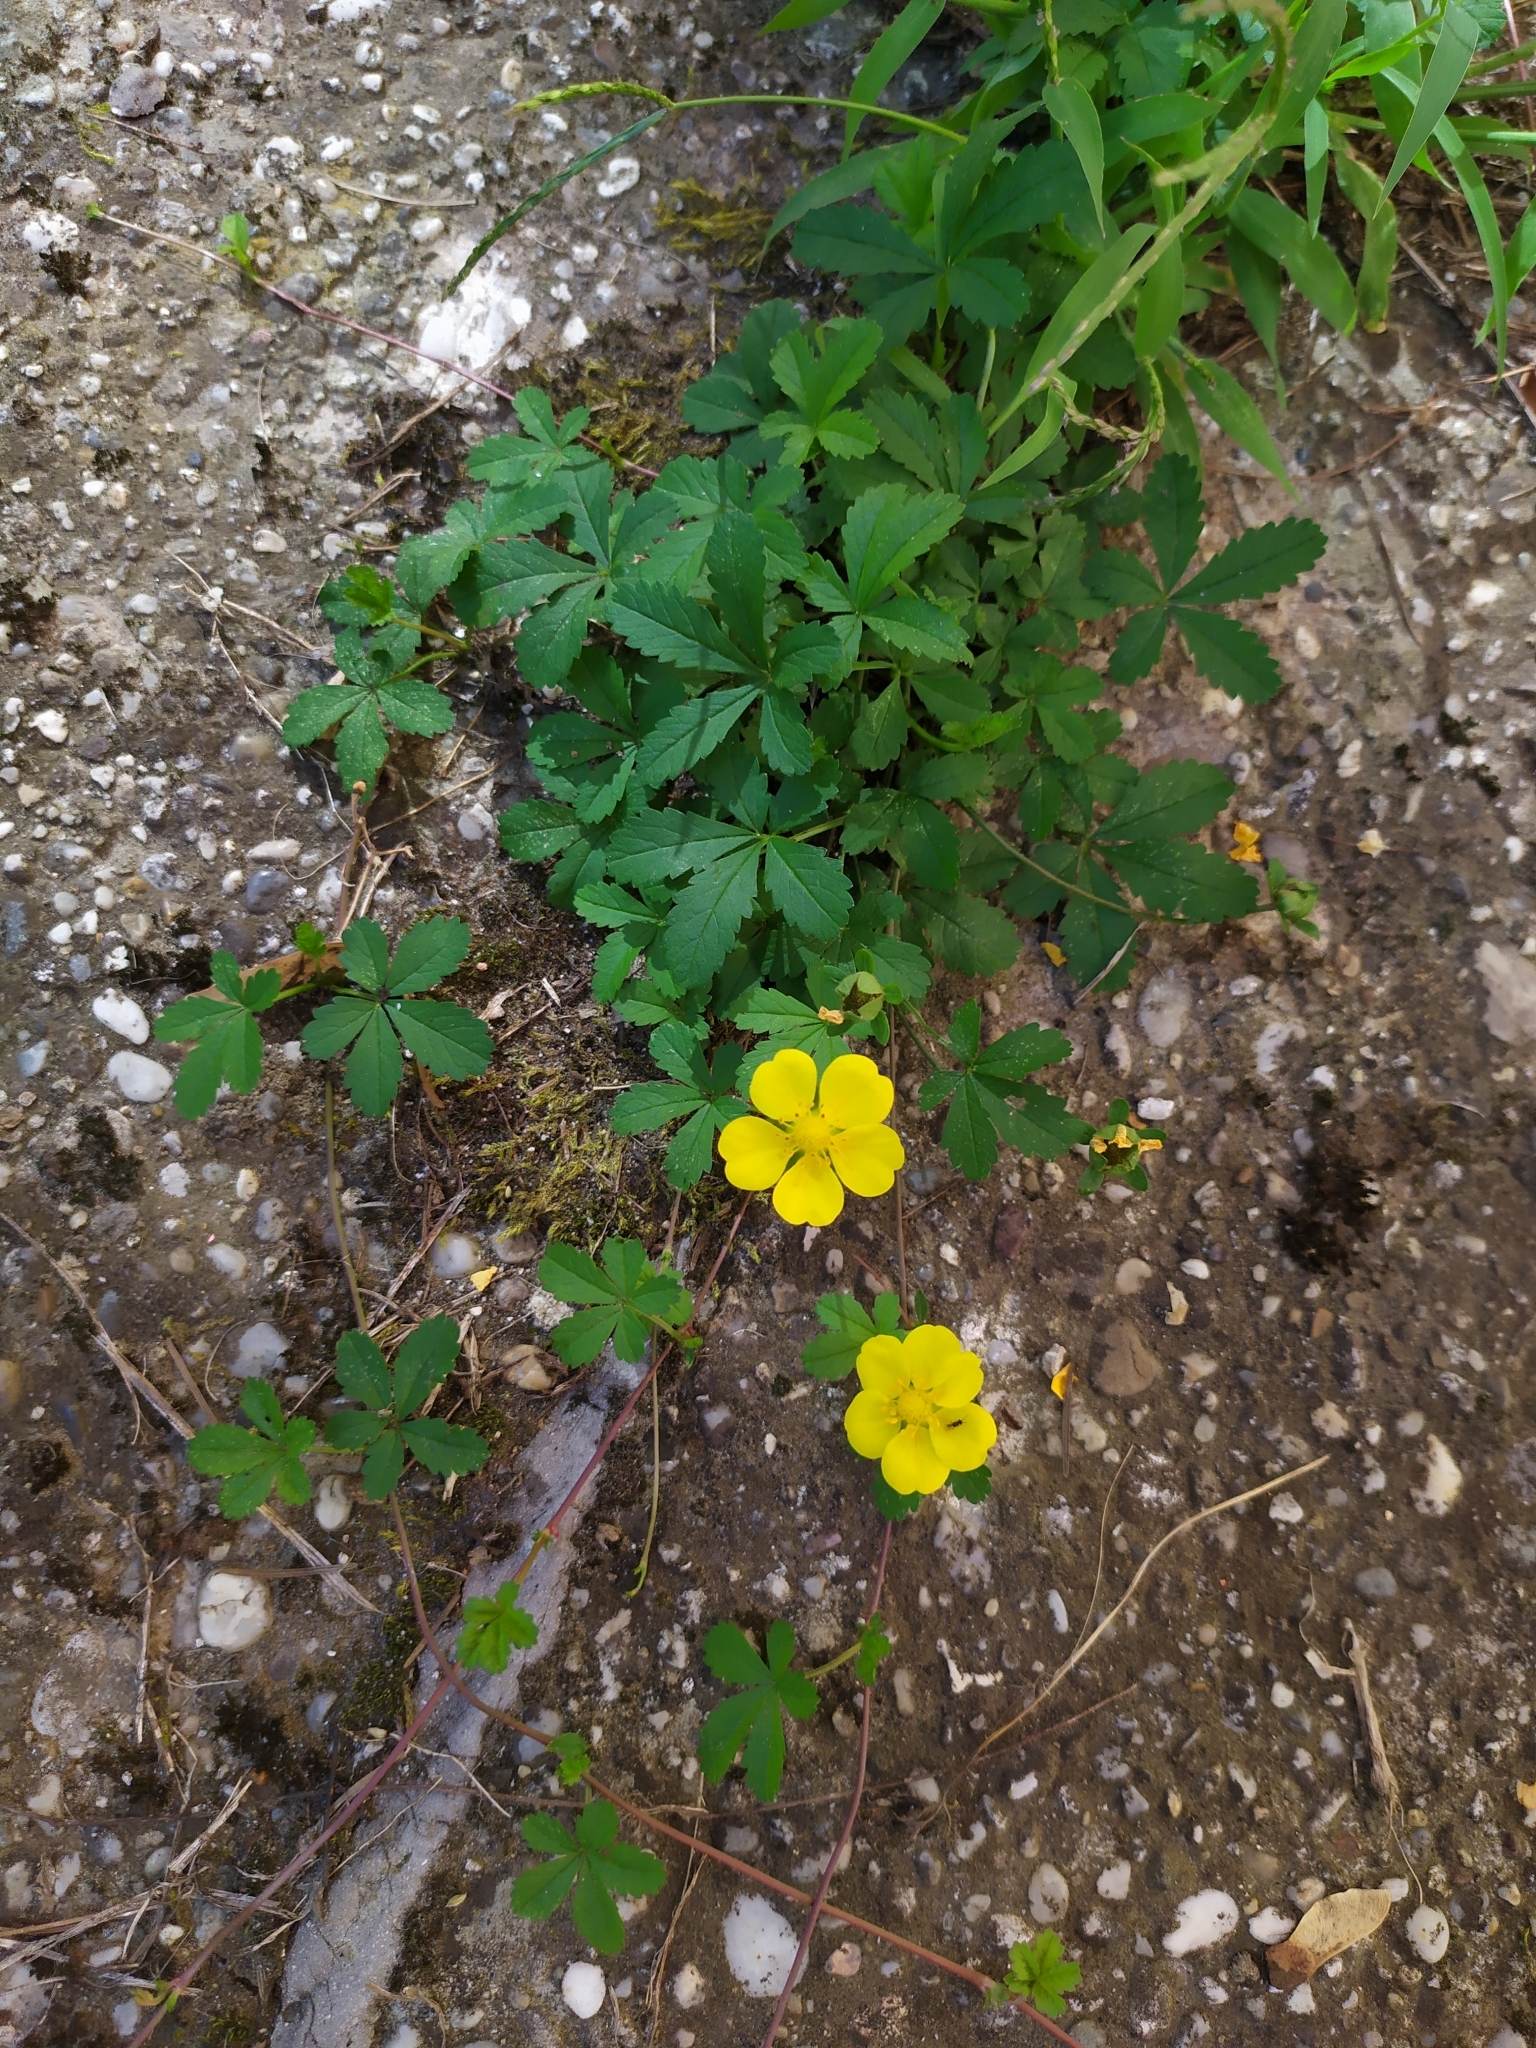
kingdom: Plantae
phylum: Tracheophyta
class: Magnoliopsida
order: Rosales
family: Rosaceae
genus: Potentilla
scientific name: Potentilla reptans
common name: Creeping cinquefoil
